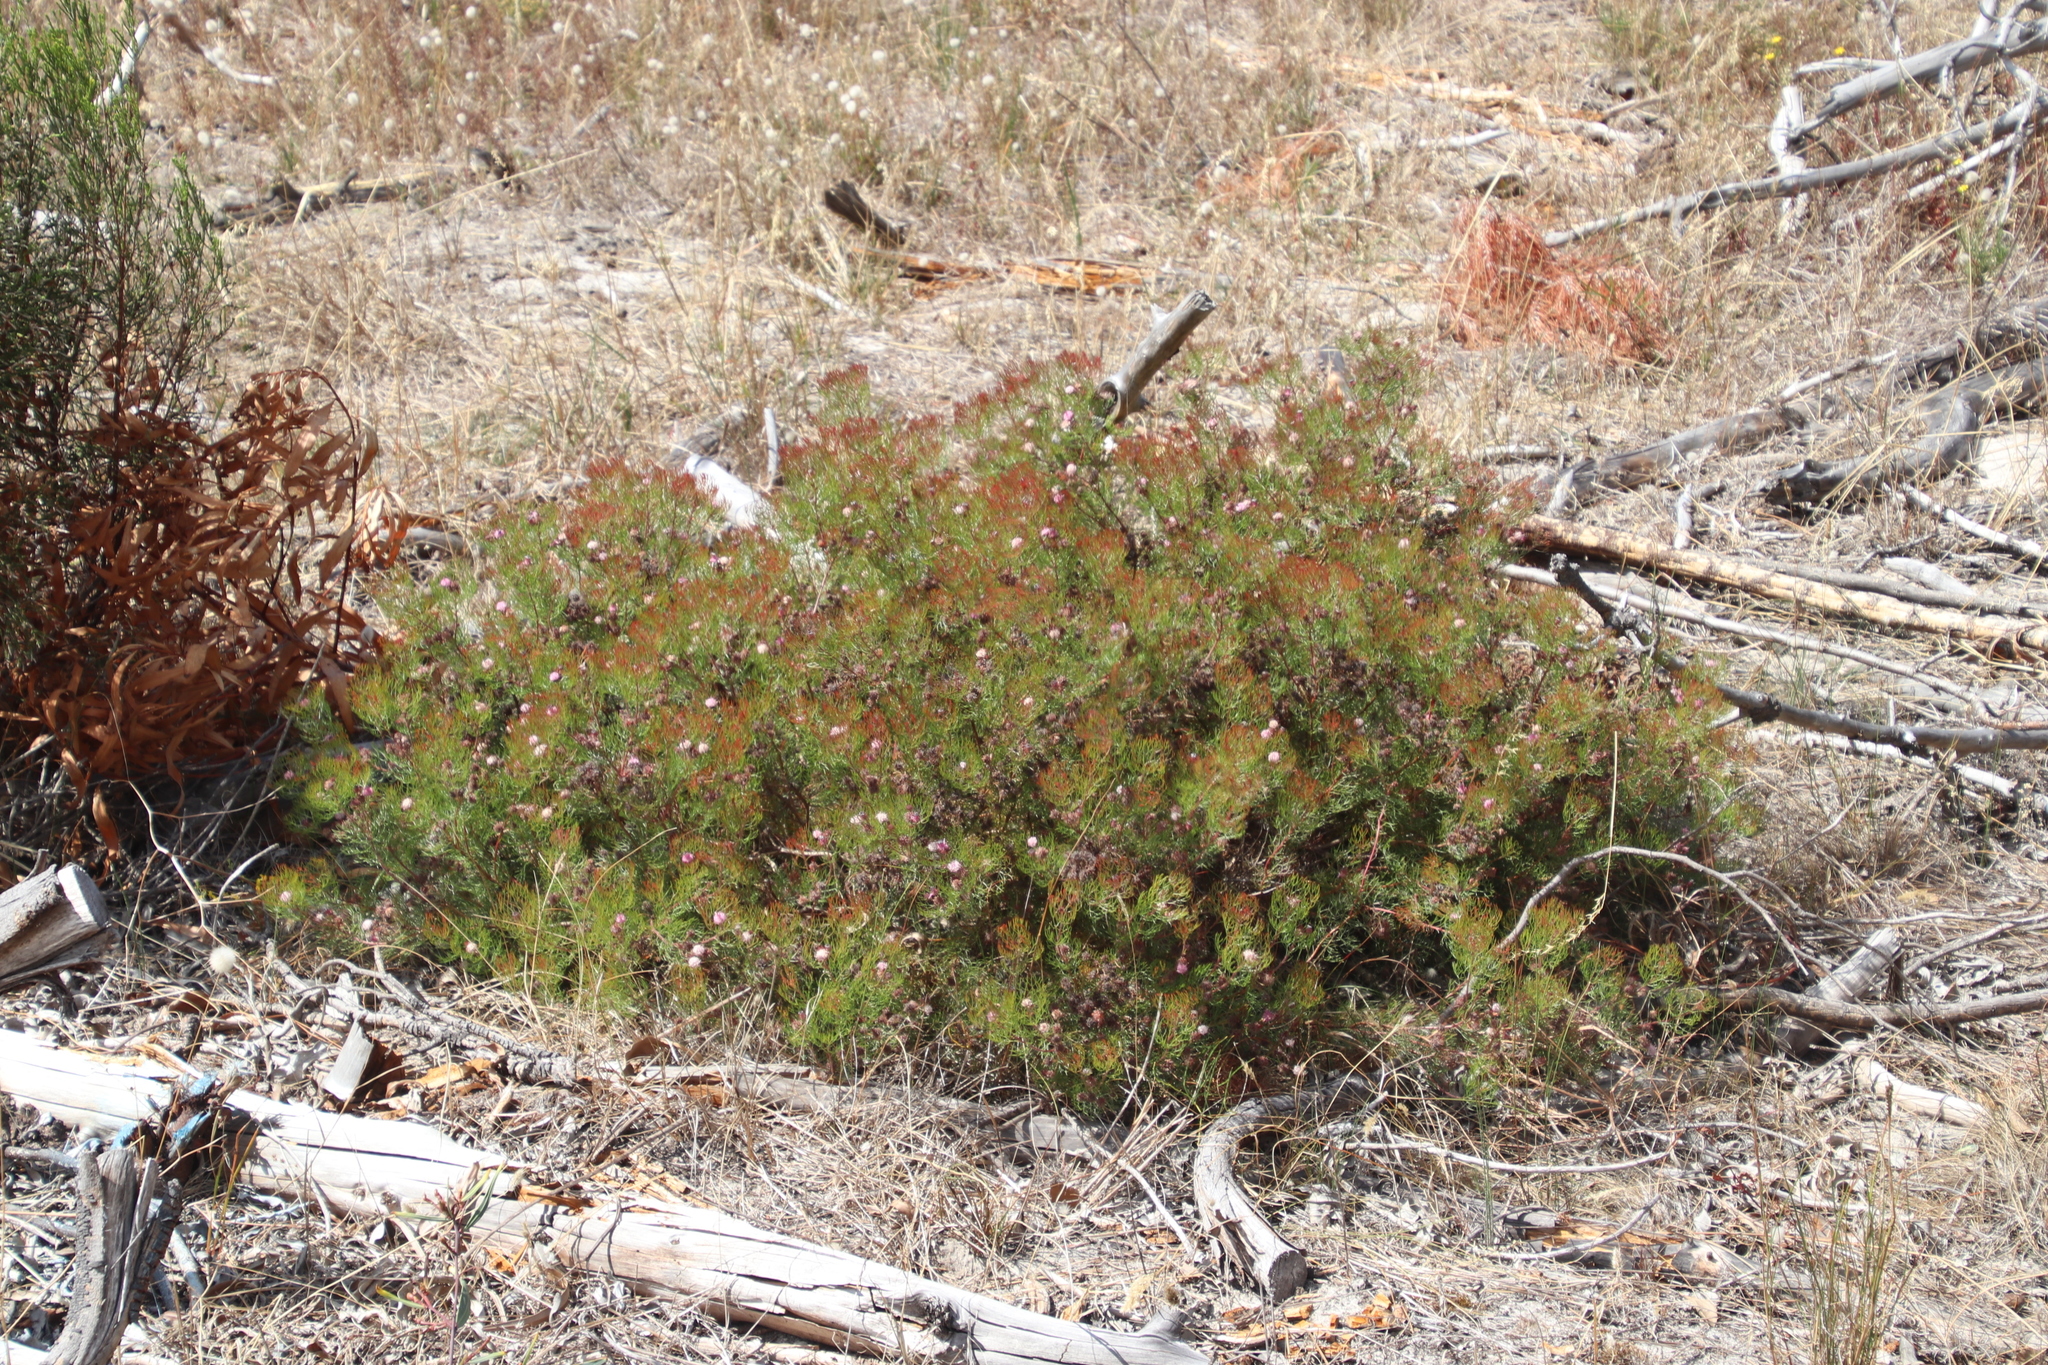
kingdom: Plantae
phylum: Tracheophyta
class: Magnoliopsida
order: Proteales
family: Proteaceae
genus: Serruria
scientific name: Serruria fasciflora
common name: Common pin spiderhead
